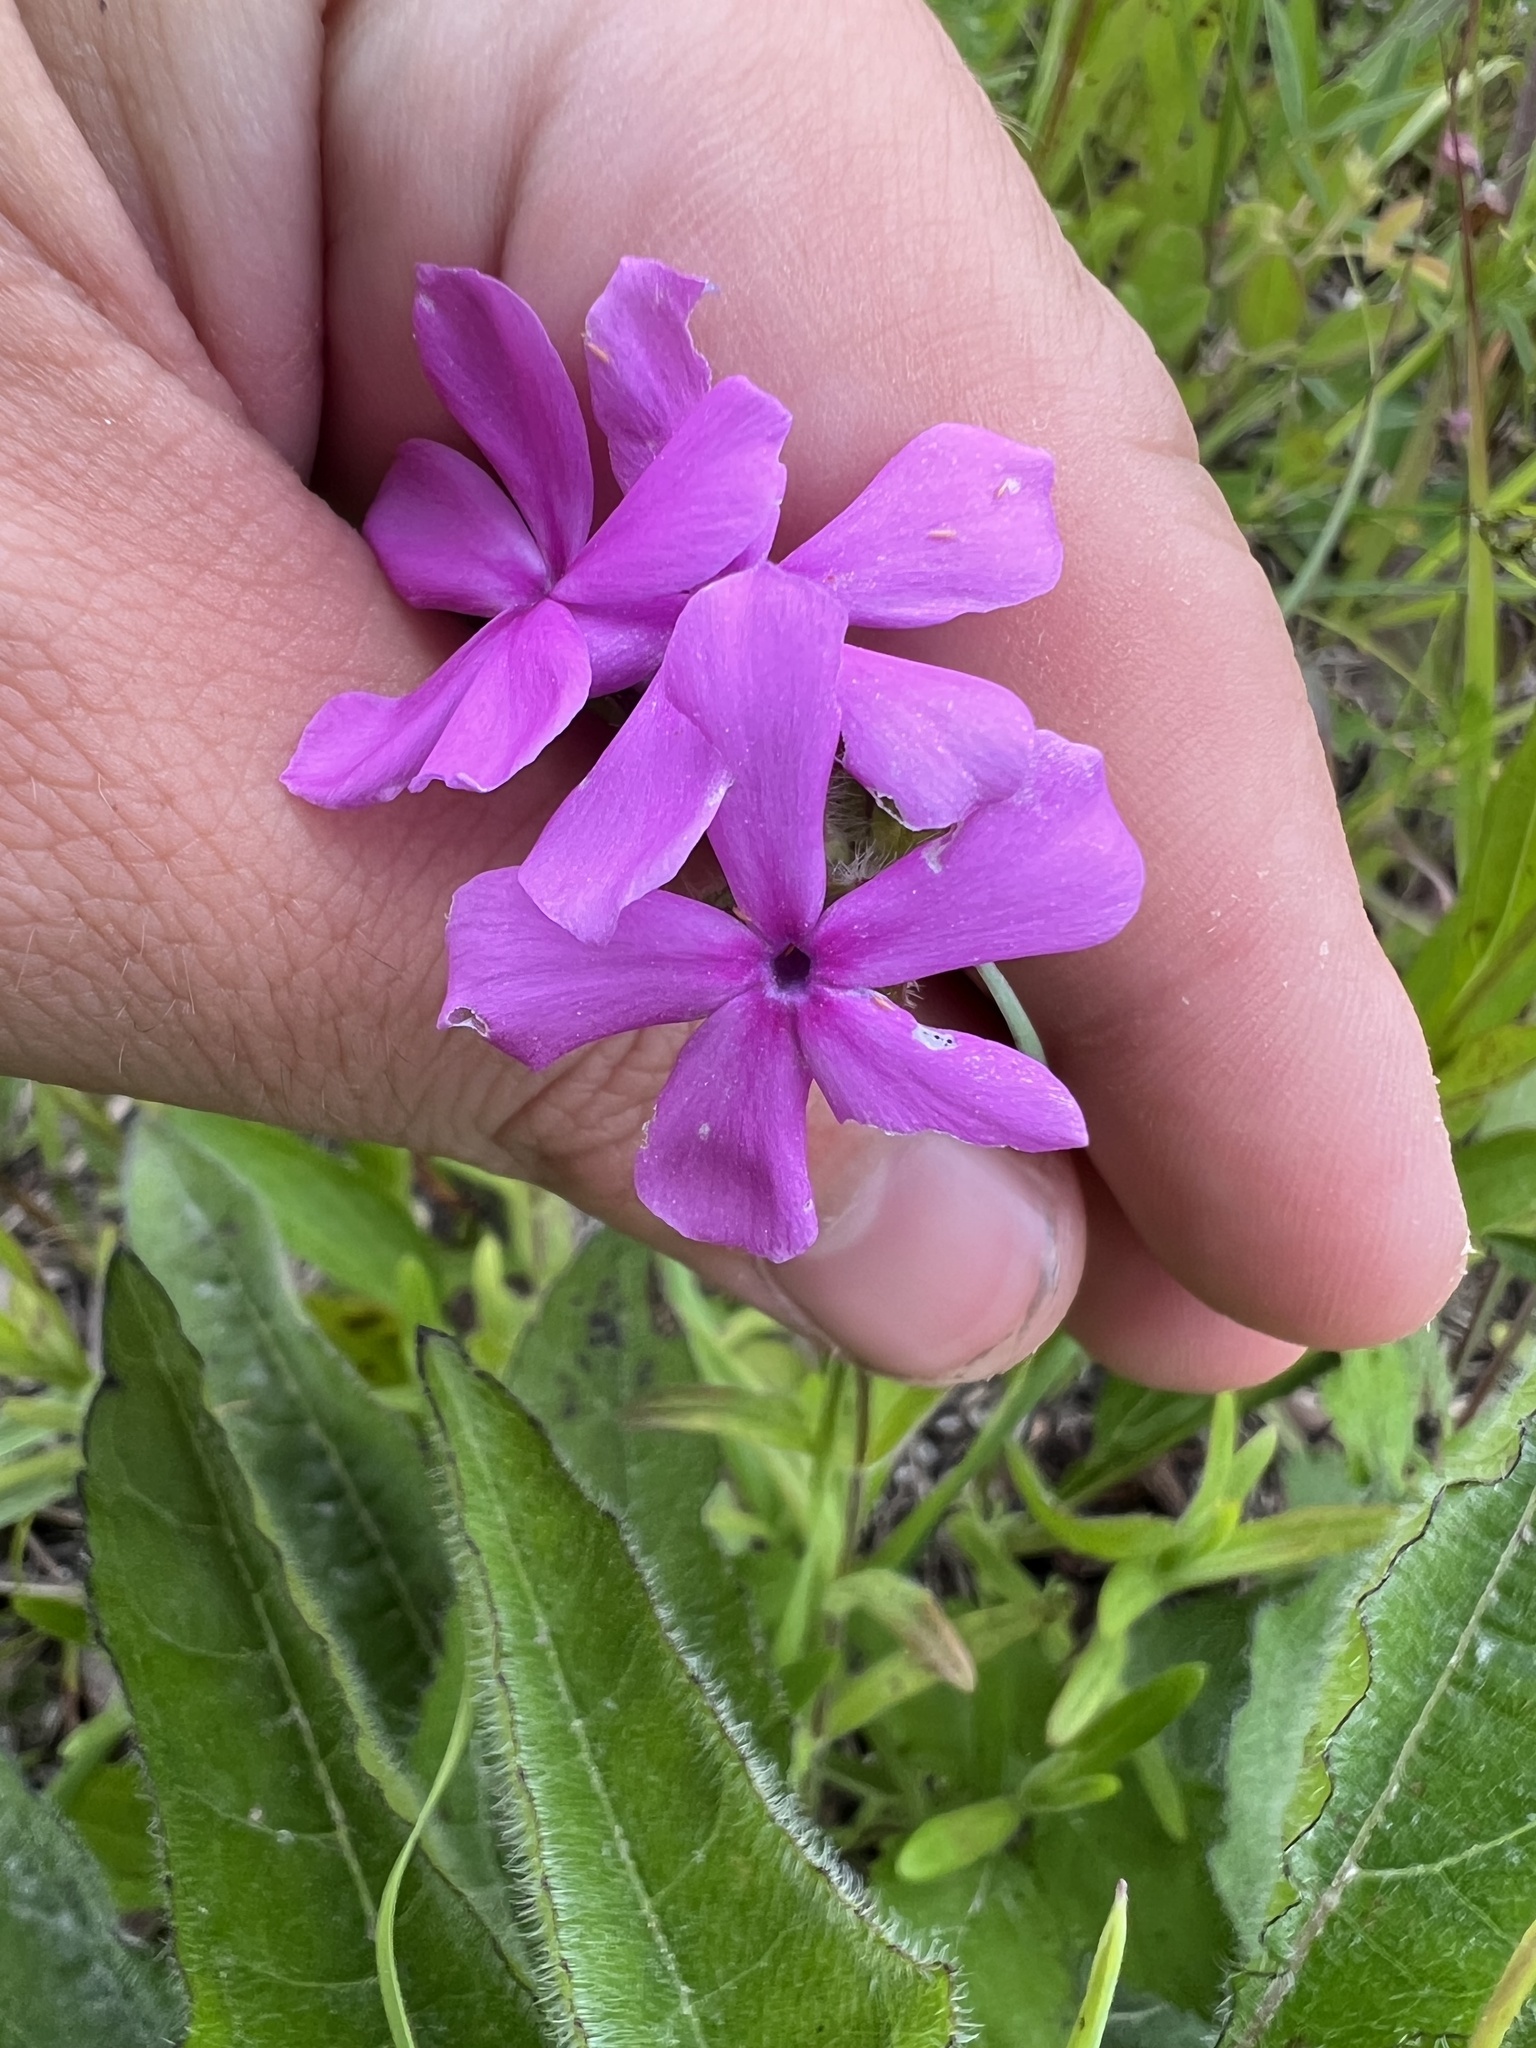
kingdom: Plantae
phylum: Tracheophyta
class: Magnoliopsida
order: Ericales
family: Polemoniaceae
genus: Phlox
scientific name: Phlox amoena
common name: Hairy phlox
